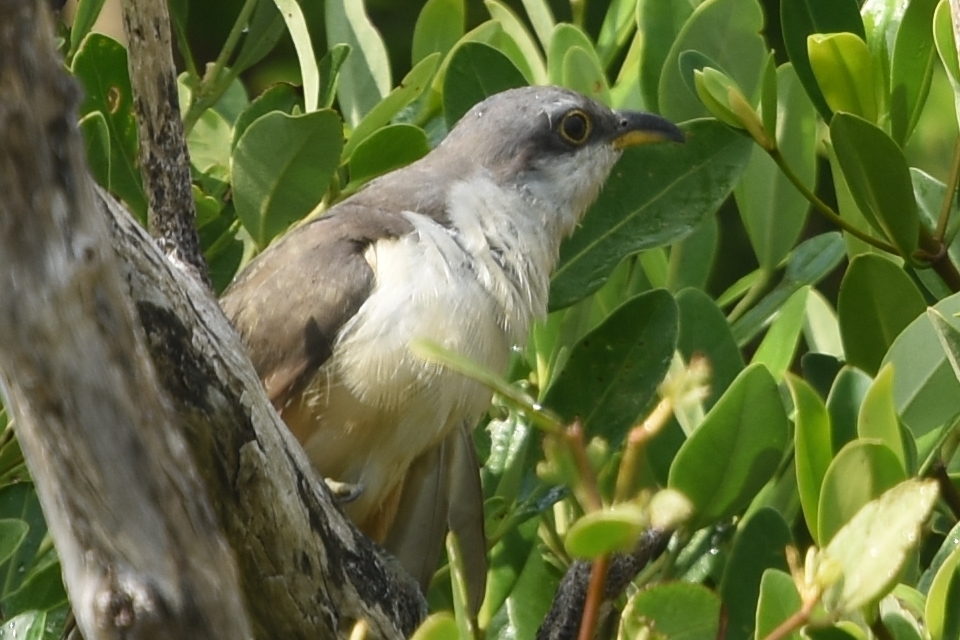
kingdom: Animalia
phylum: Chordata
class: Aves
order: Cuculiformes
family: Cuculidae
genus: Coccyzus
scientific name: Coccyzus minor
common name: Mangrove cuckoo
